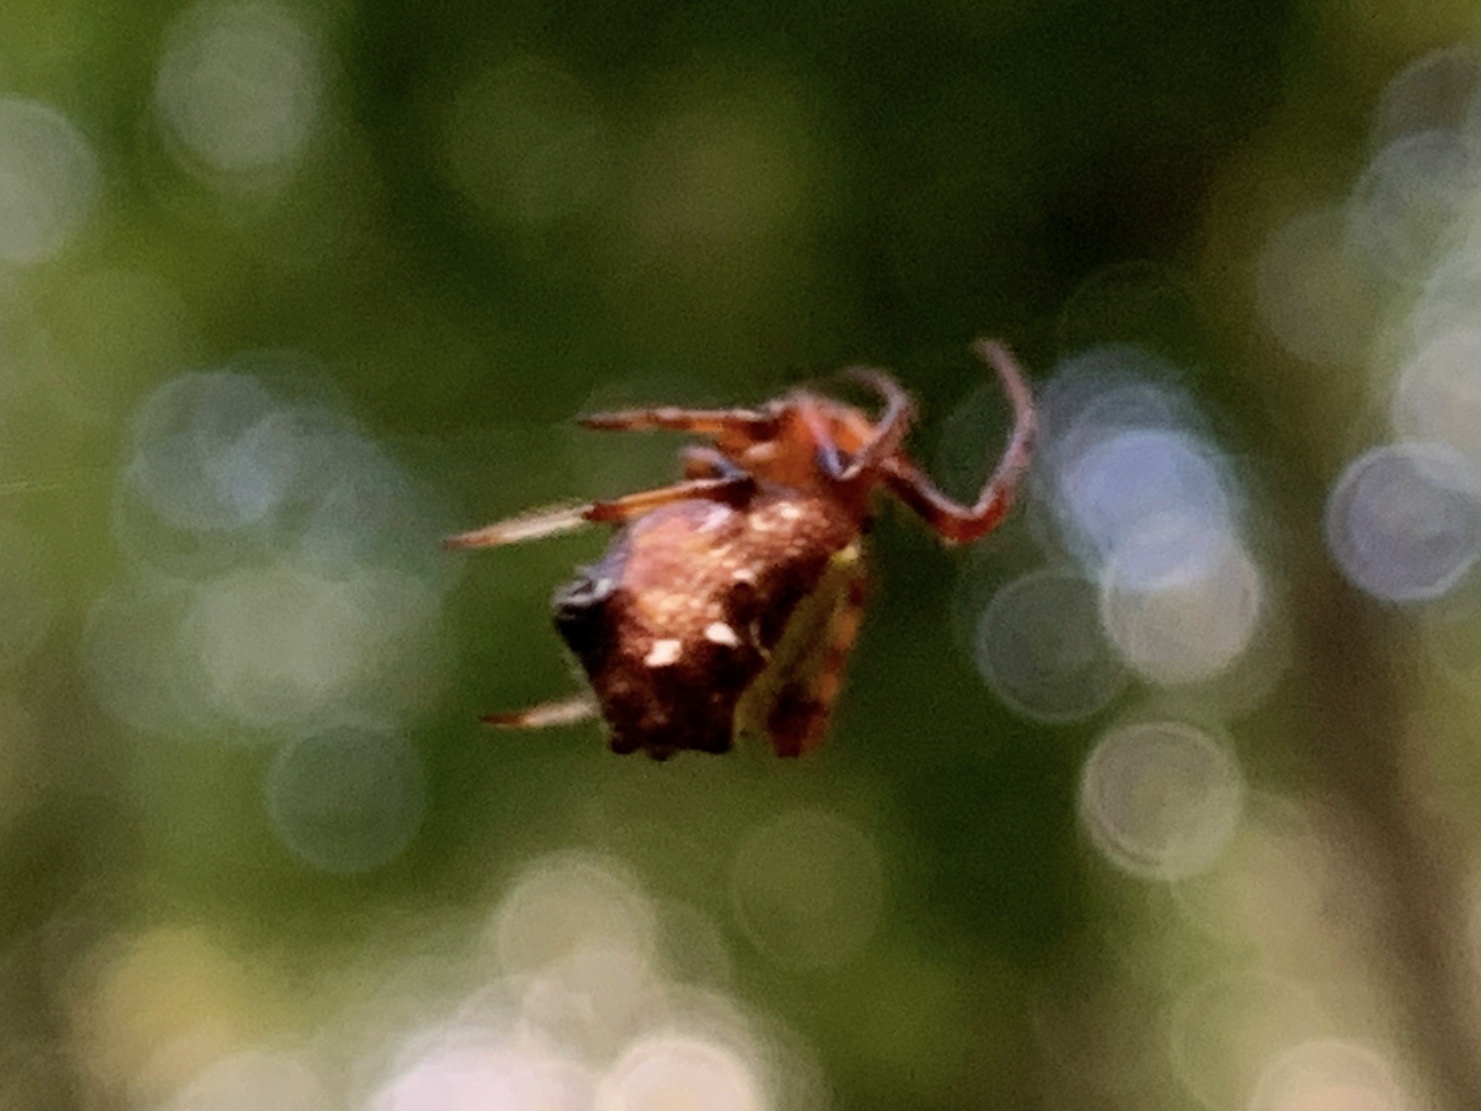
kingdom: Animalia
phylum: Arthropoda
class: Arachnida
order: Araneae
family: Araneidae
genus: Verrucosa
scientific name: Verrucosa arenata
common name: Orb weavers
